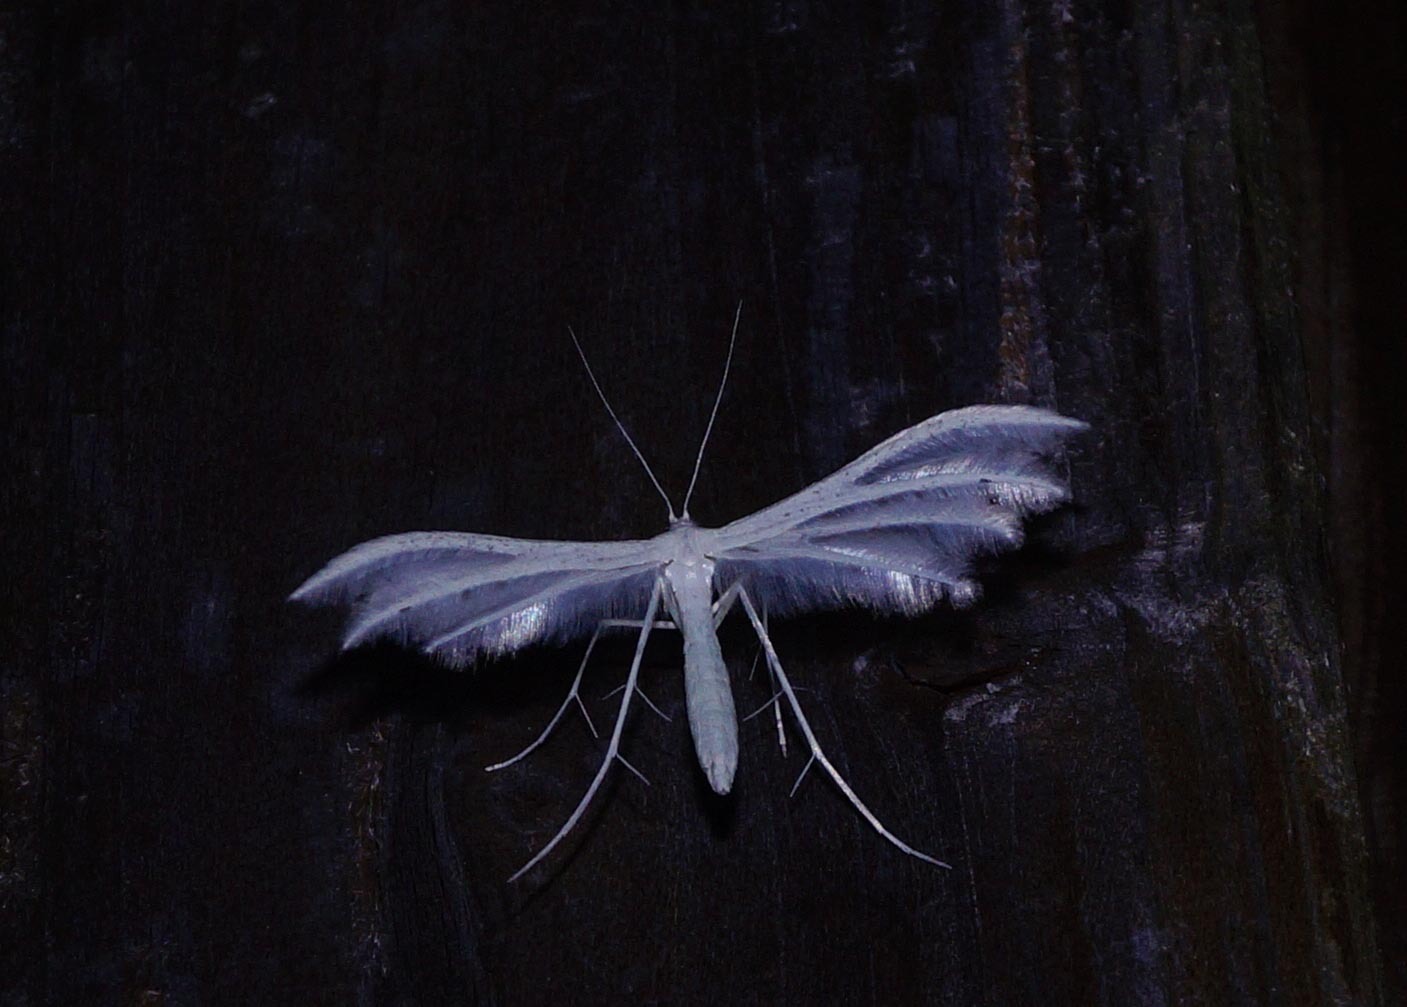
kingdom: Animalia
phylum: Arthropoda
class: Insecta
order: Lepidoptera
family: Pterophoridae
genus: Pterophorus
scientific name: Pterophorus pentadactyla
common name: White plume moth
